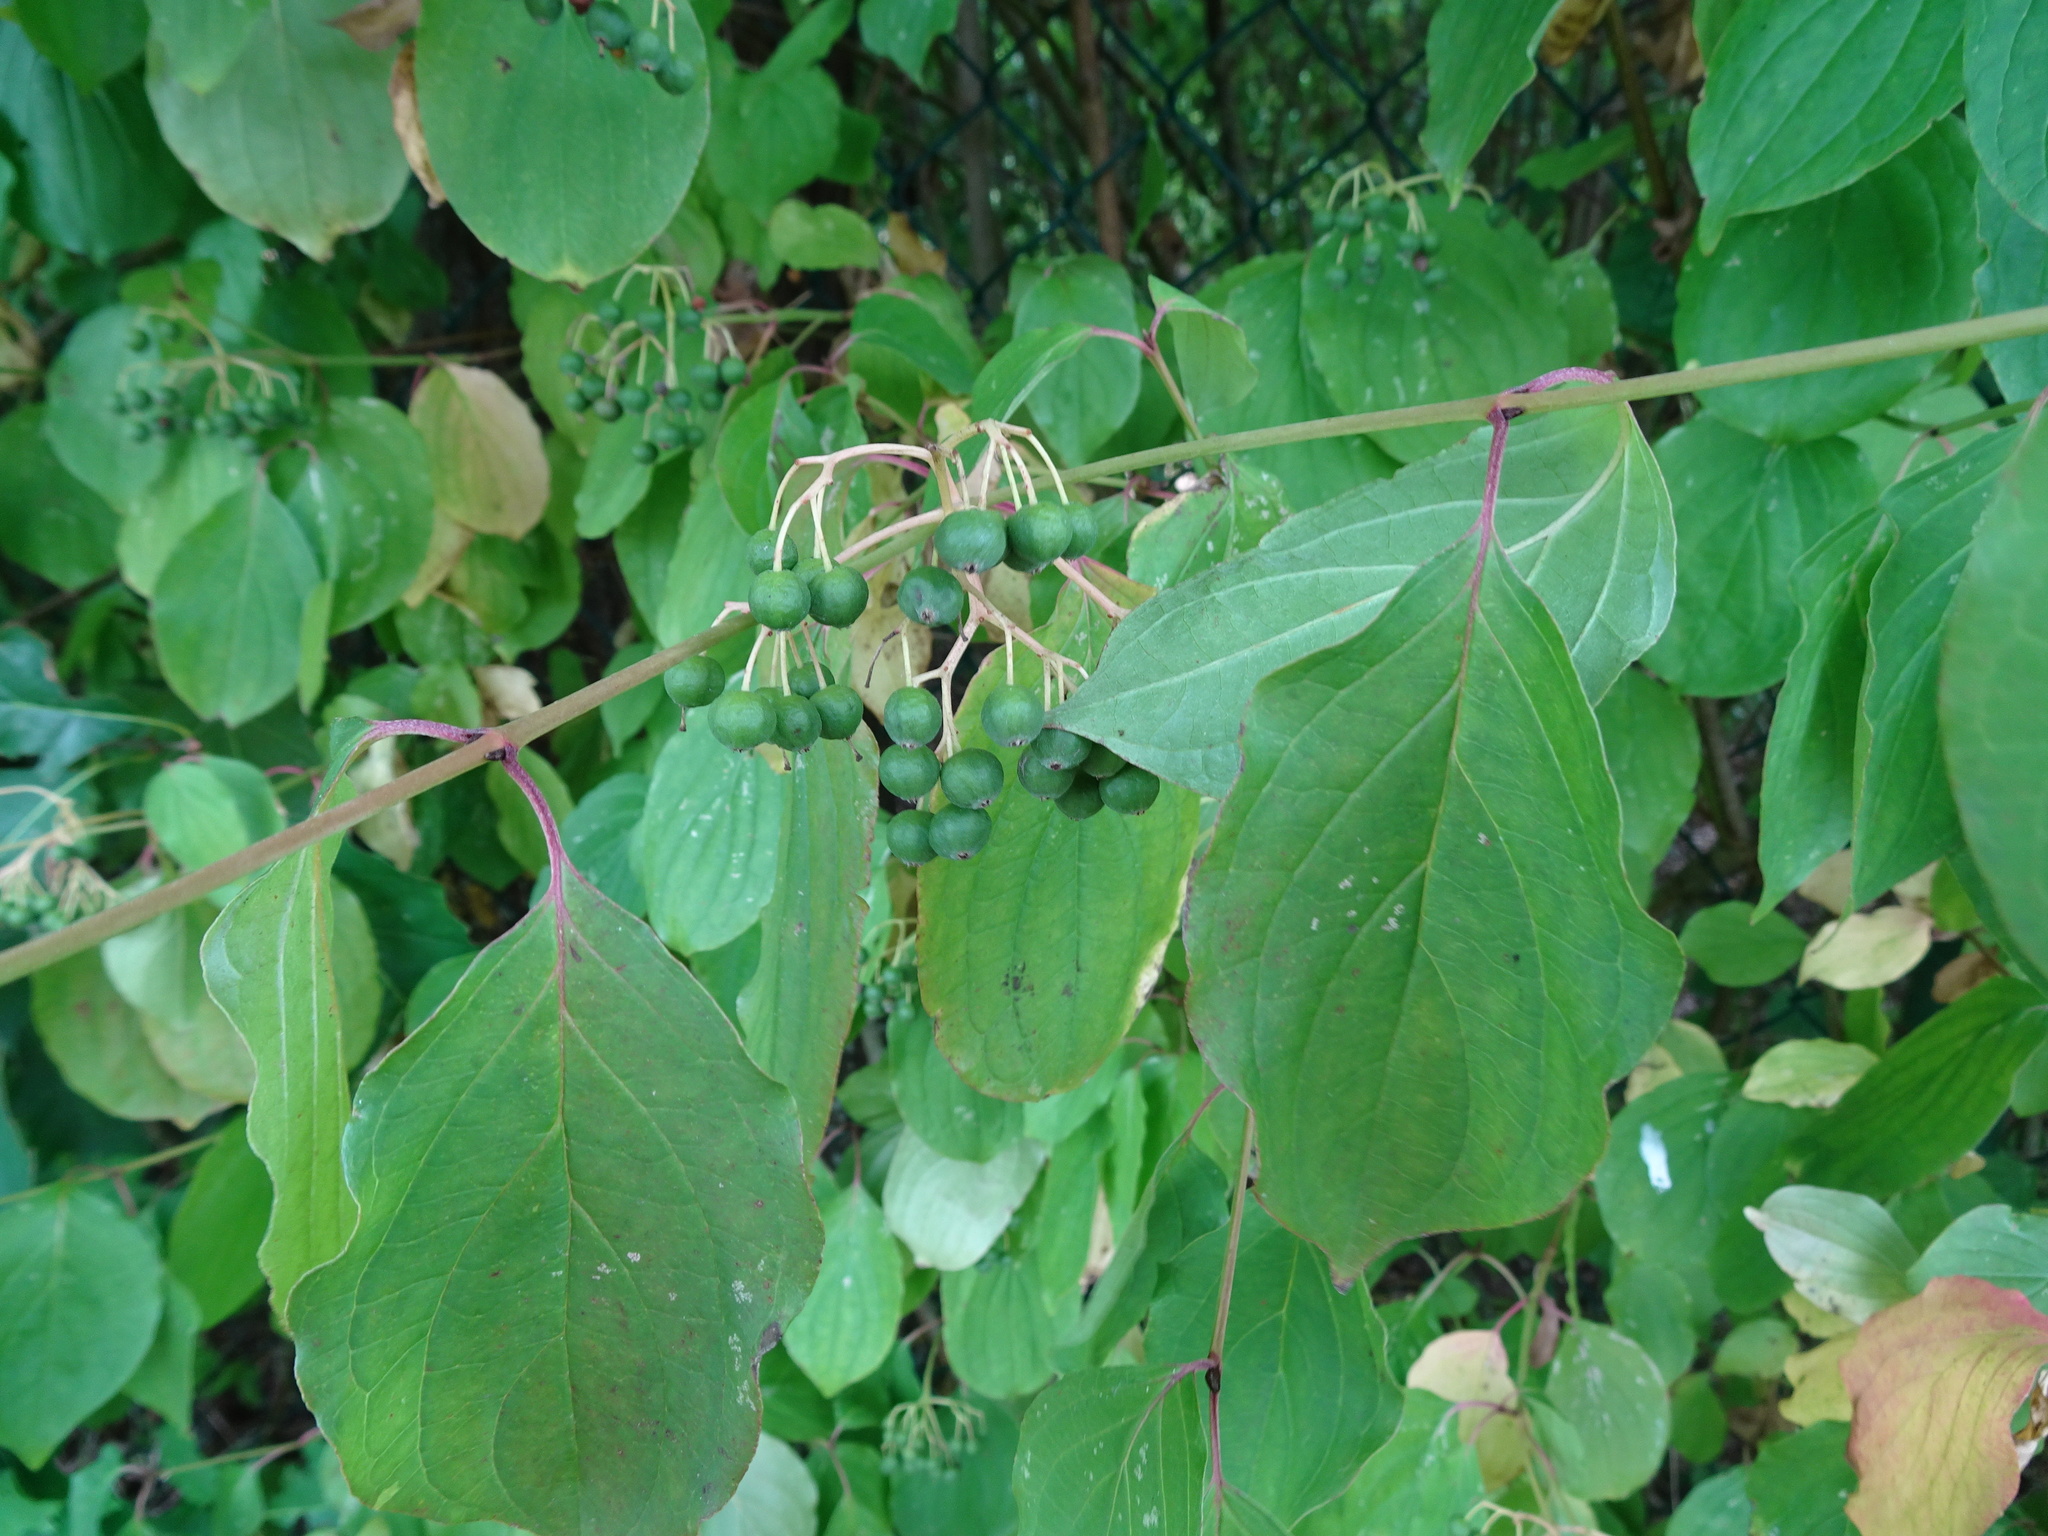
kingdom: Plantae
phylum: Tracheophyta
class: Magnoliopsida
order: Cornales
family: Cornaceae
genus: Cornus
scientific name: Cornus sanguinea
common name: Dogwood
